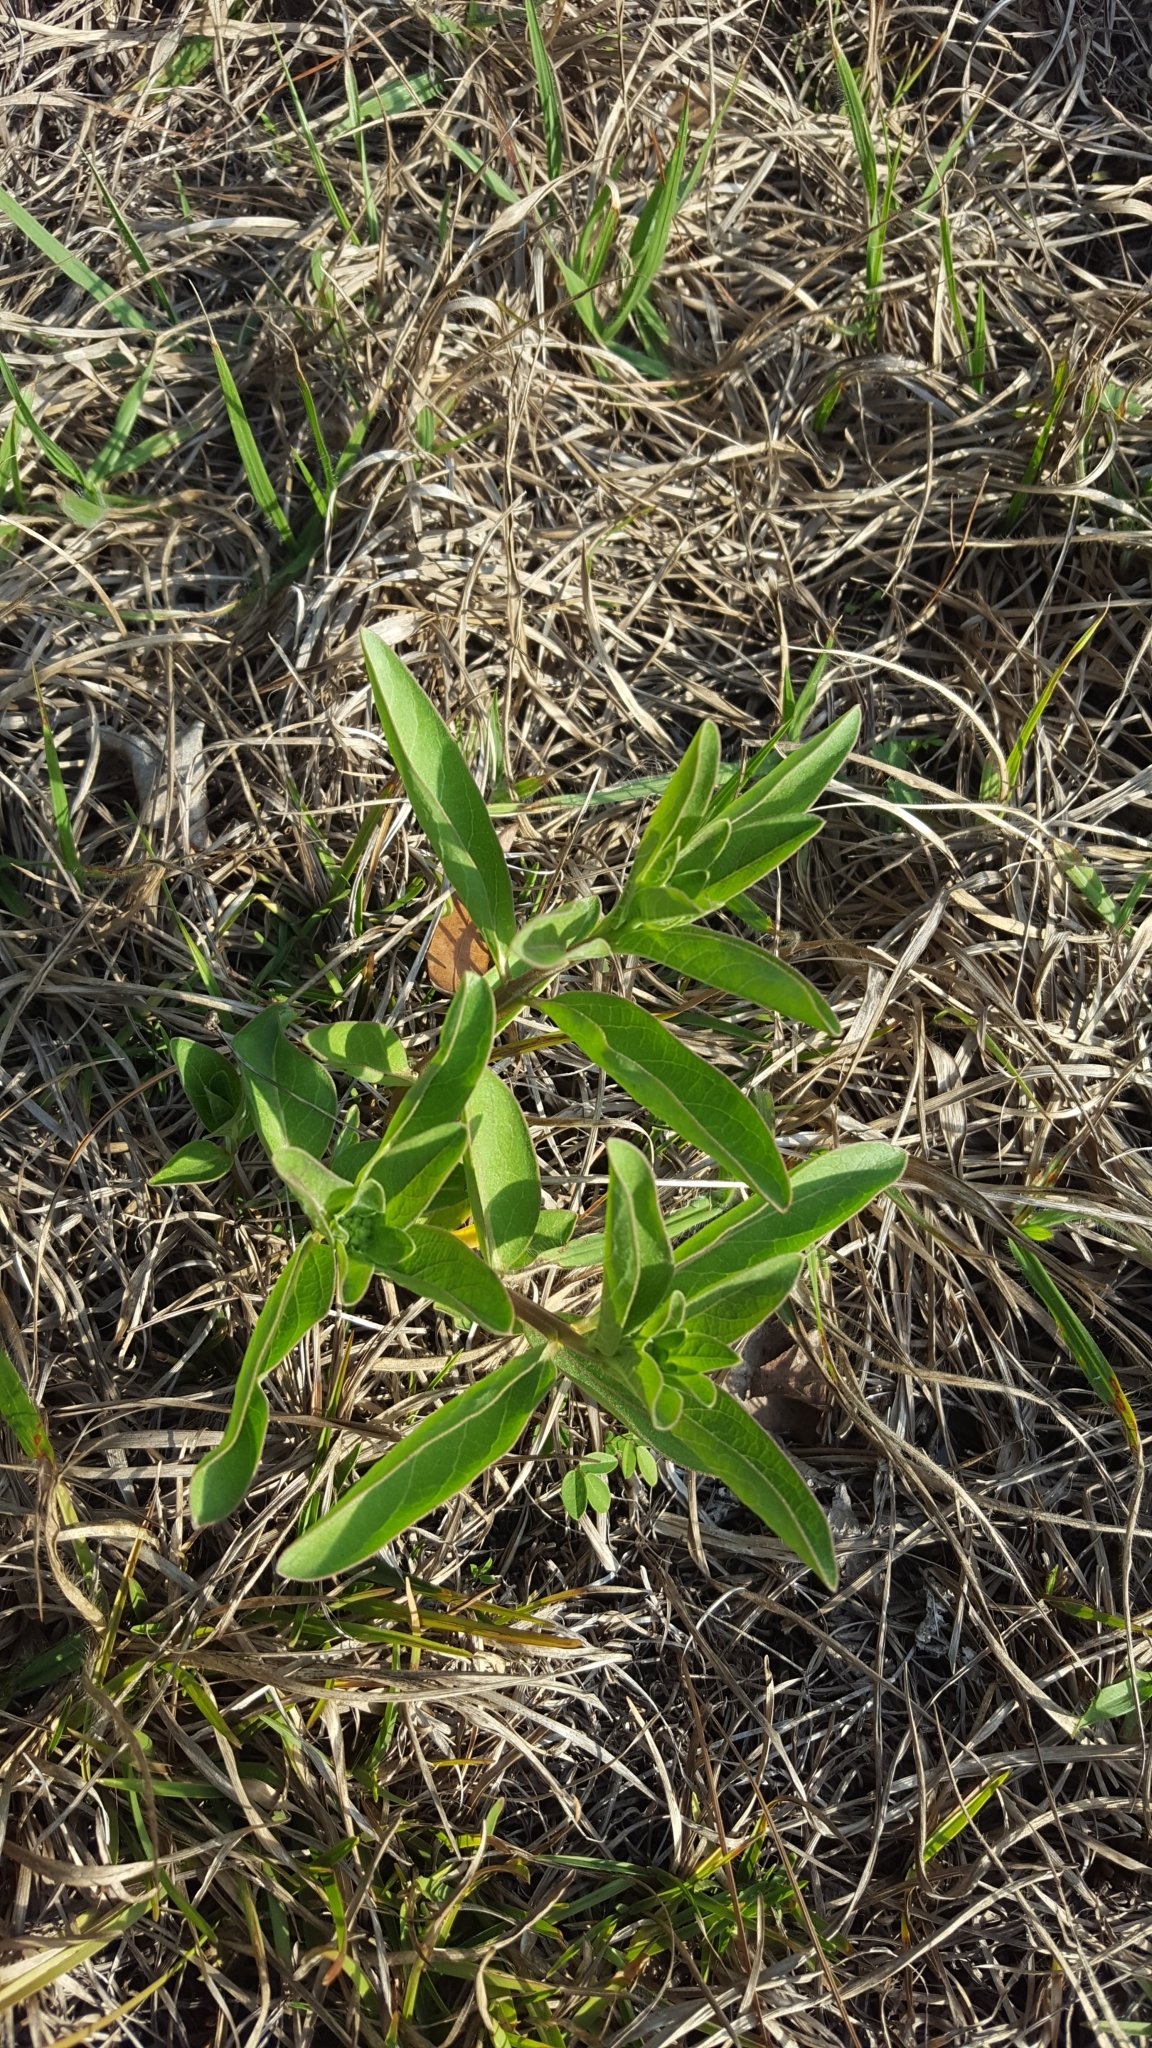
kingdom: Plantae
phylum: Tracheophyta
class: Magnoliopsida
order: Gentianales
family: Apocynaceae
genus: Asclepias
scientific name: Asclepias viridis
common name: Antelope-horns
